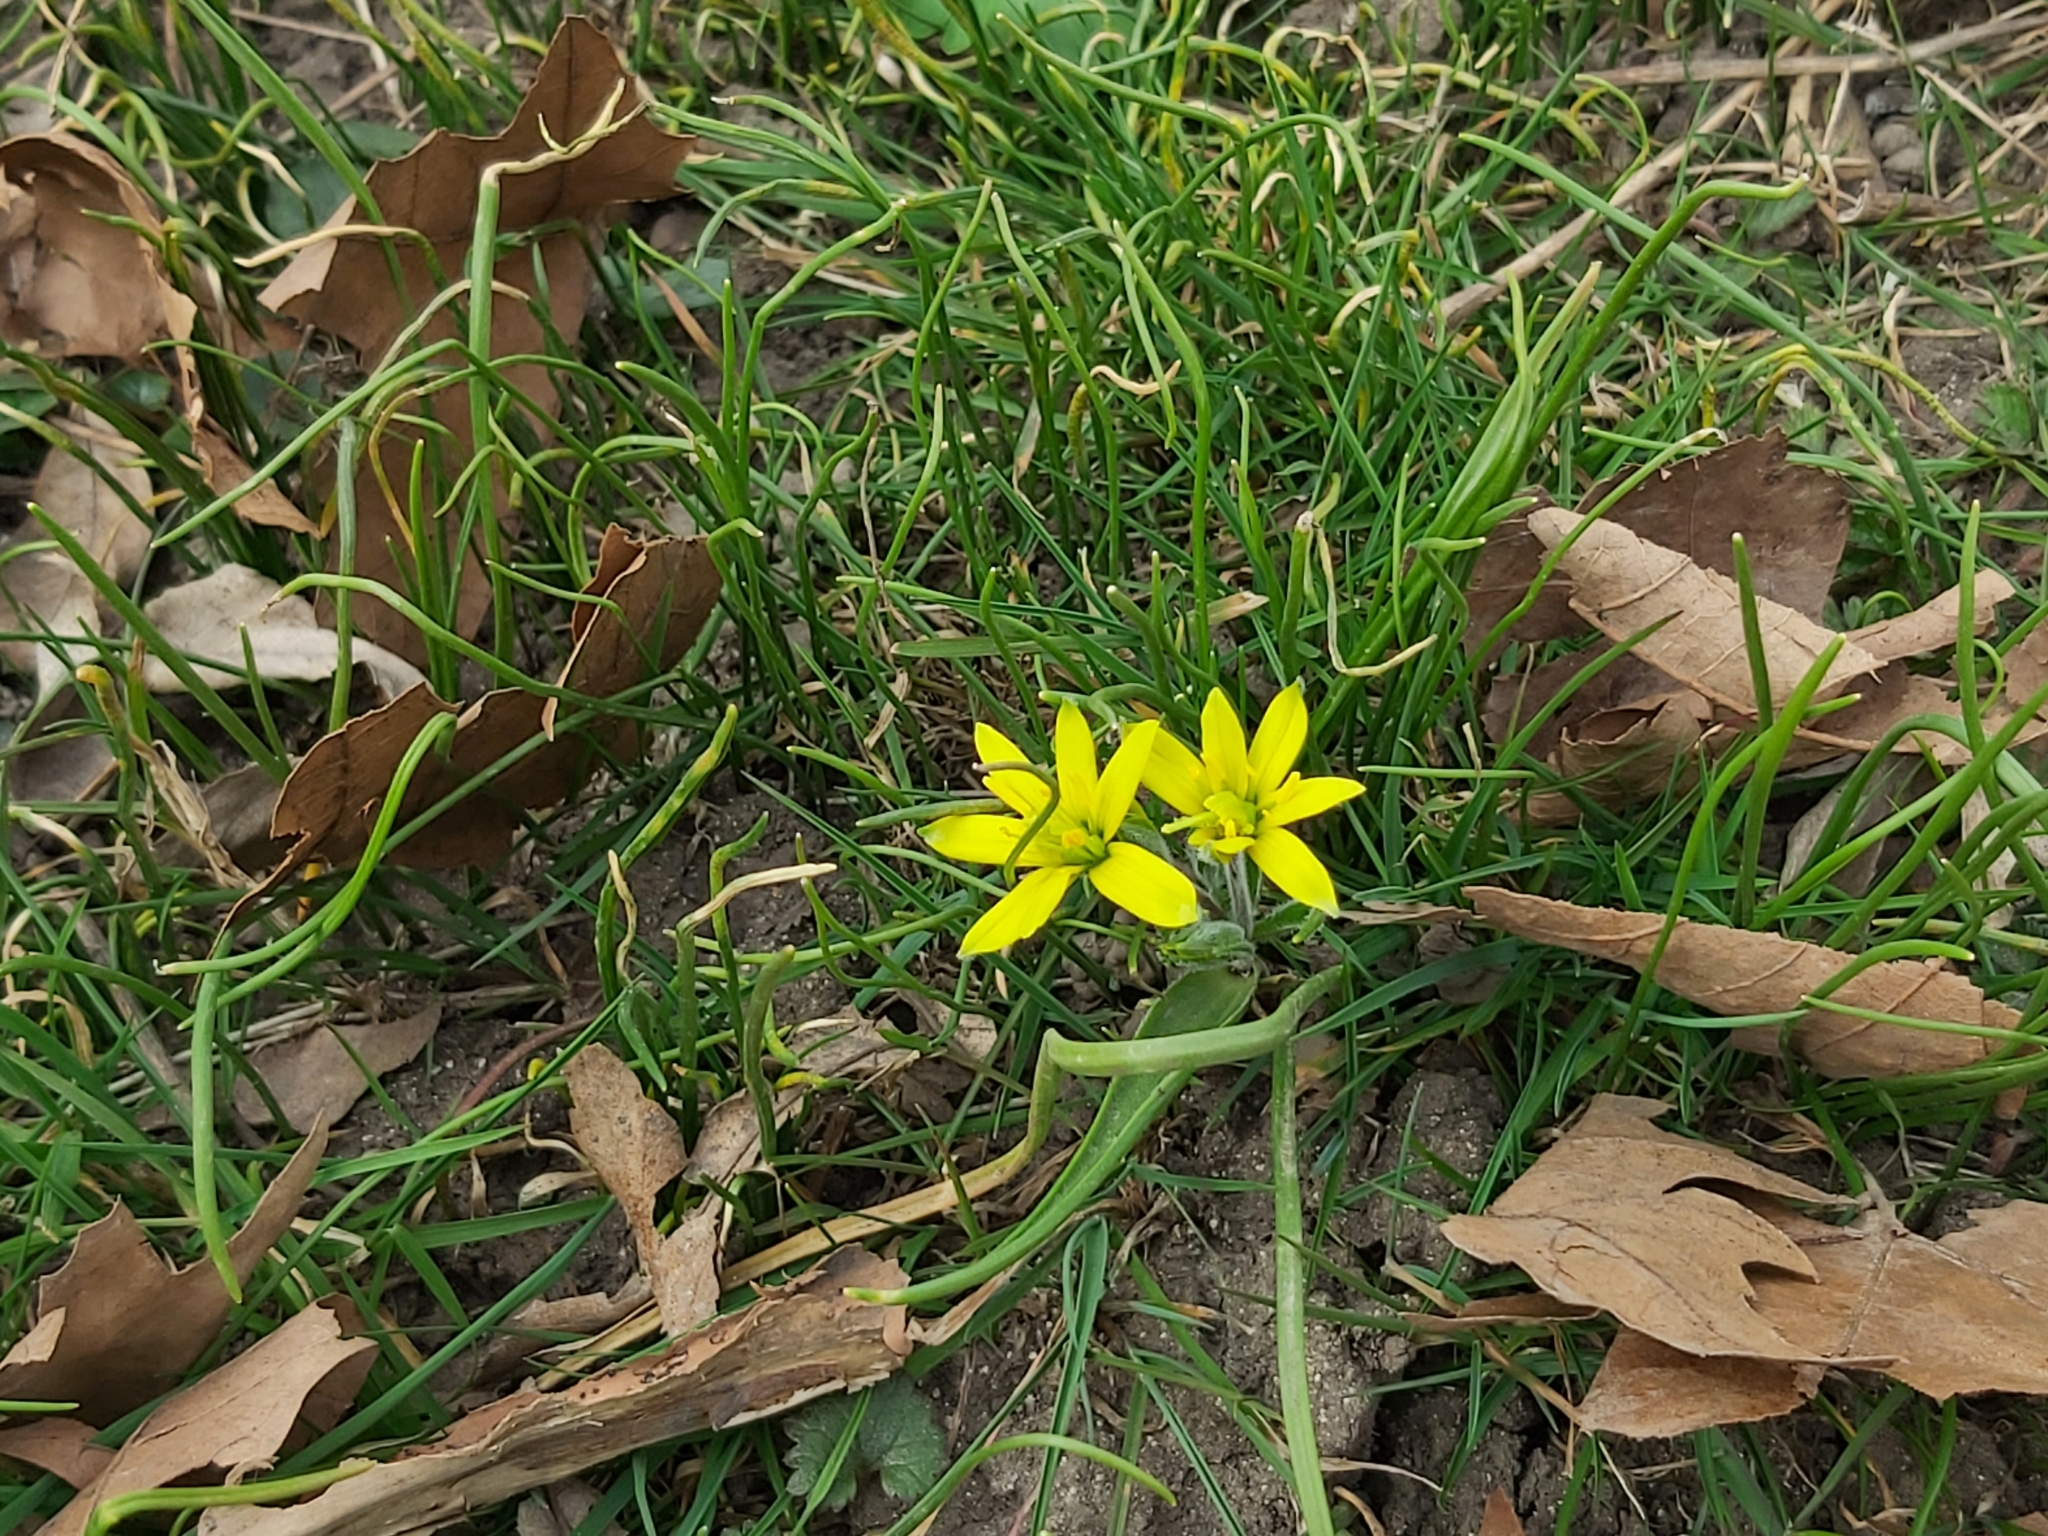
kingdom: Plantae
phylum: Tracheophyta
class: Liliopsida
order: Liliales
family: Liliaceae
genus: Gagea
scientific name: Gagea lutea
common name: Yellow star-of-bethlehem
